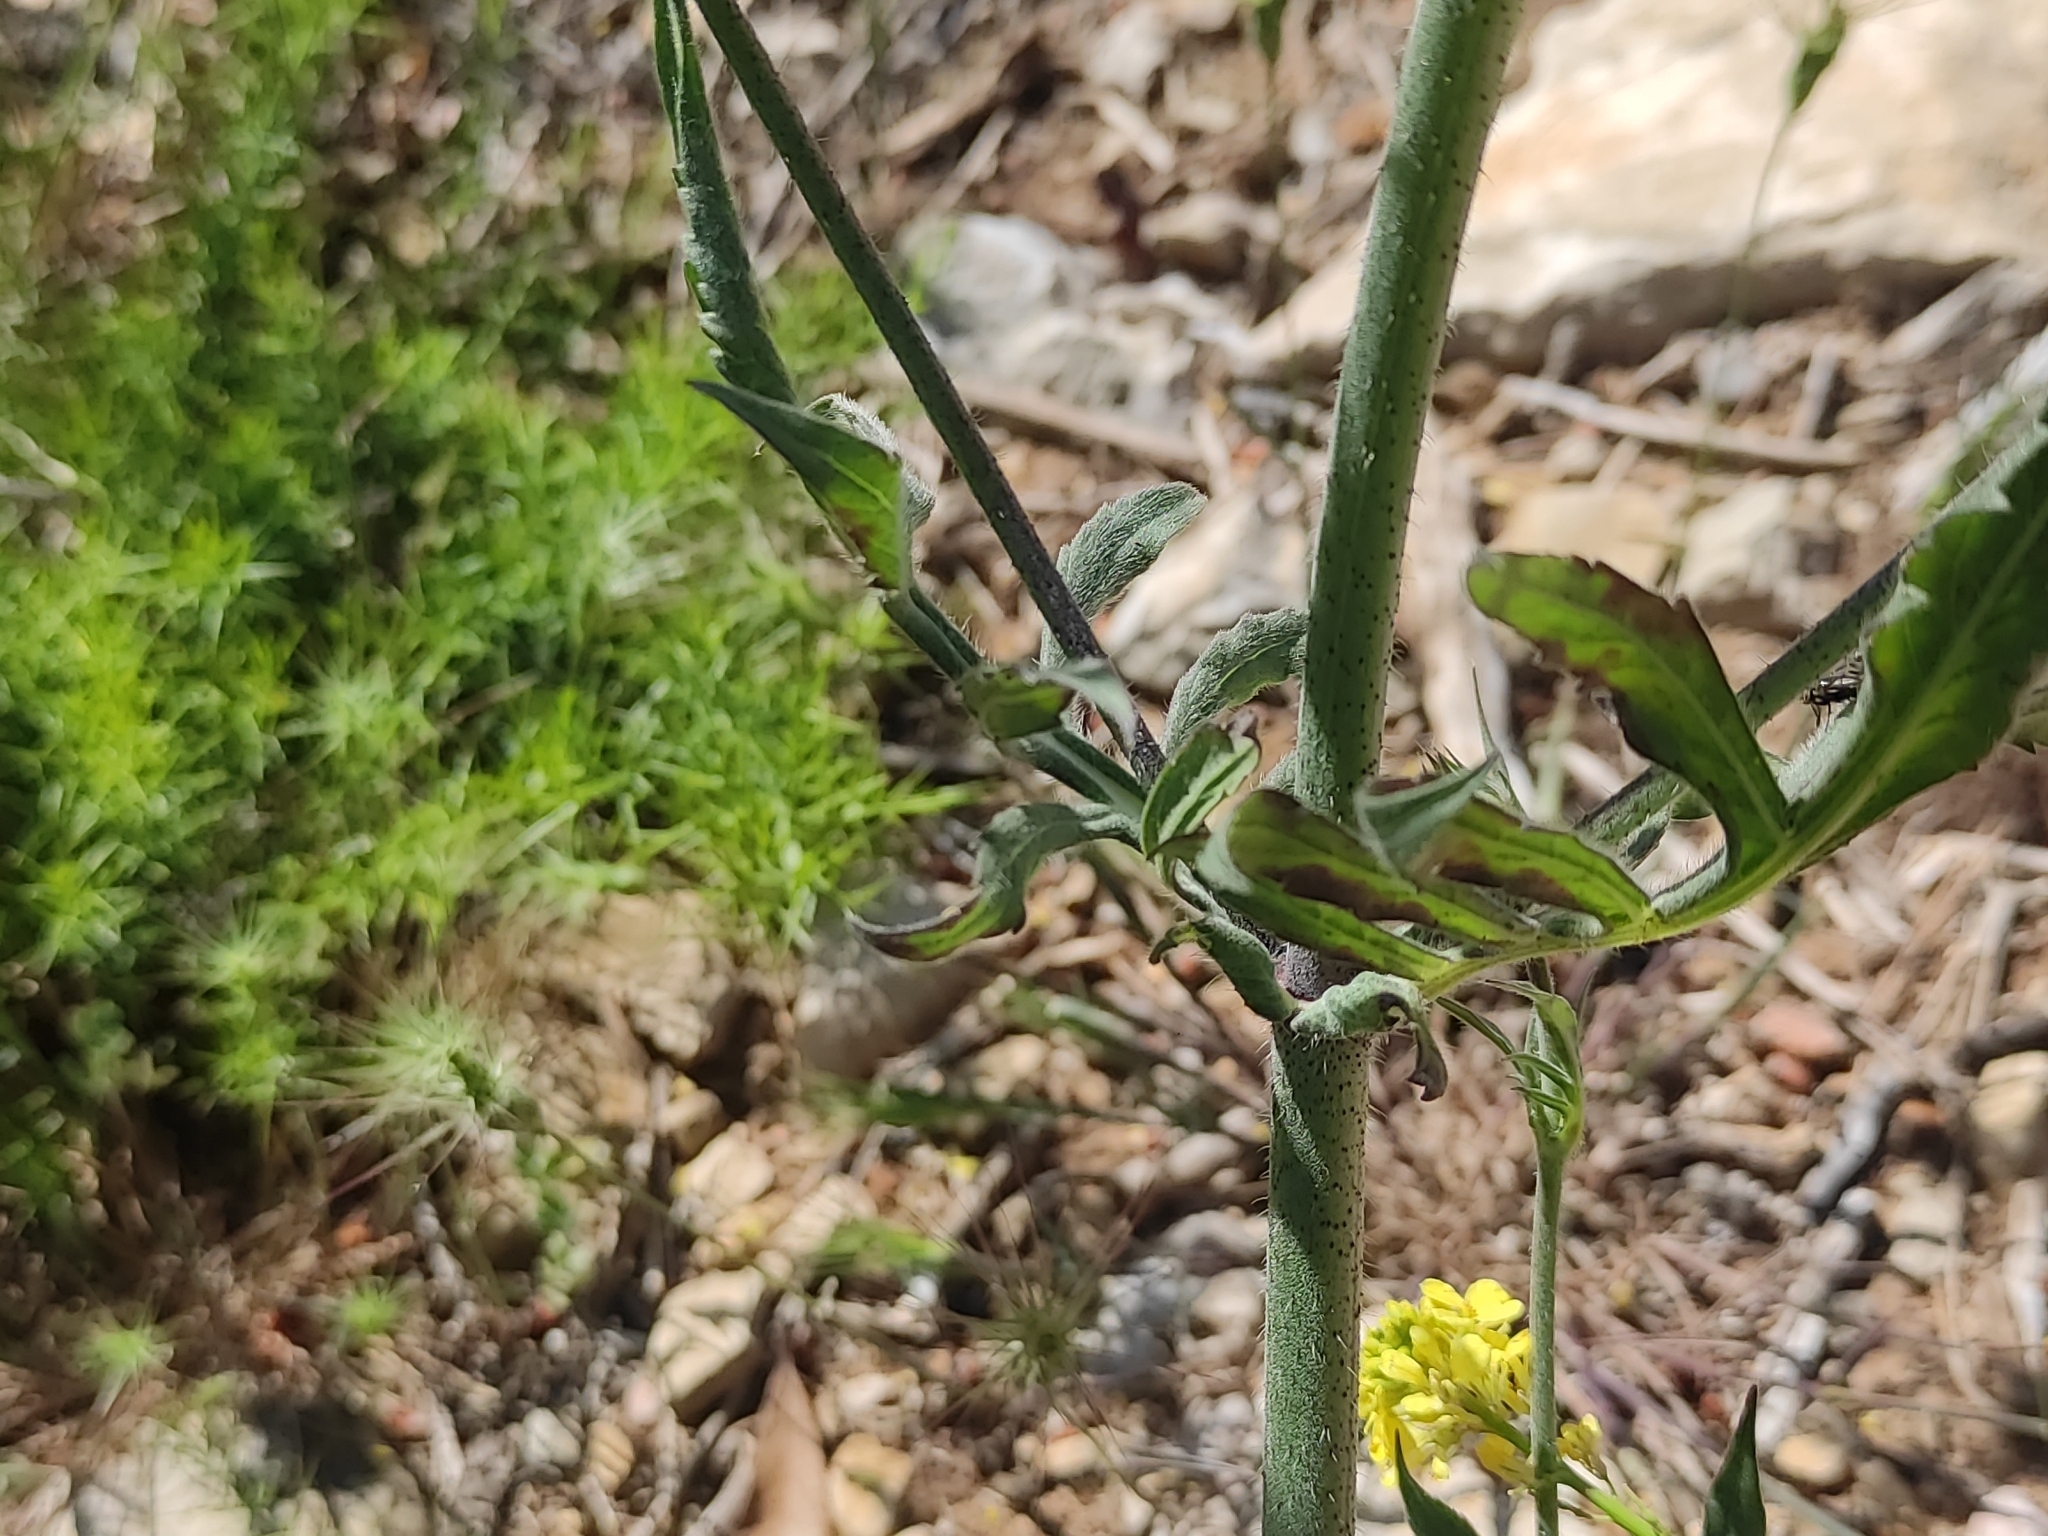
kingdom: Plantae
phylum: Tracheophyta
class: Magnoliopsida
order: Dipsacales
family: Caprifoliaceae
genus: Knautia
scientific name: Knautia integrifolia
